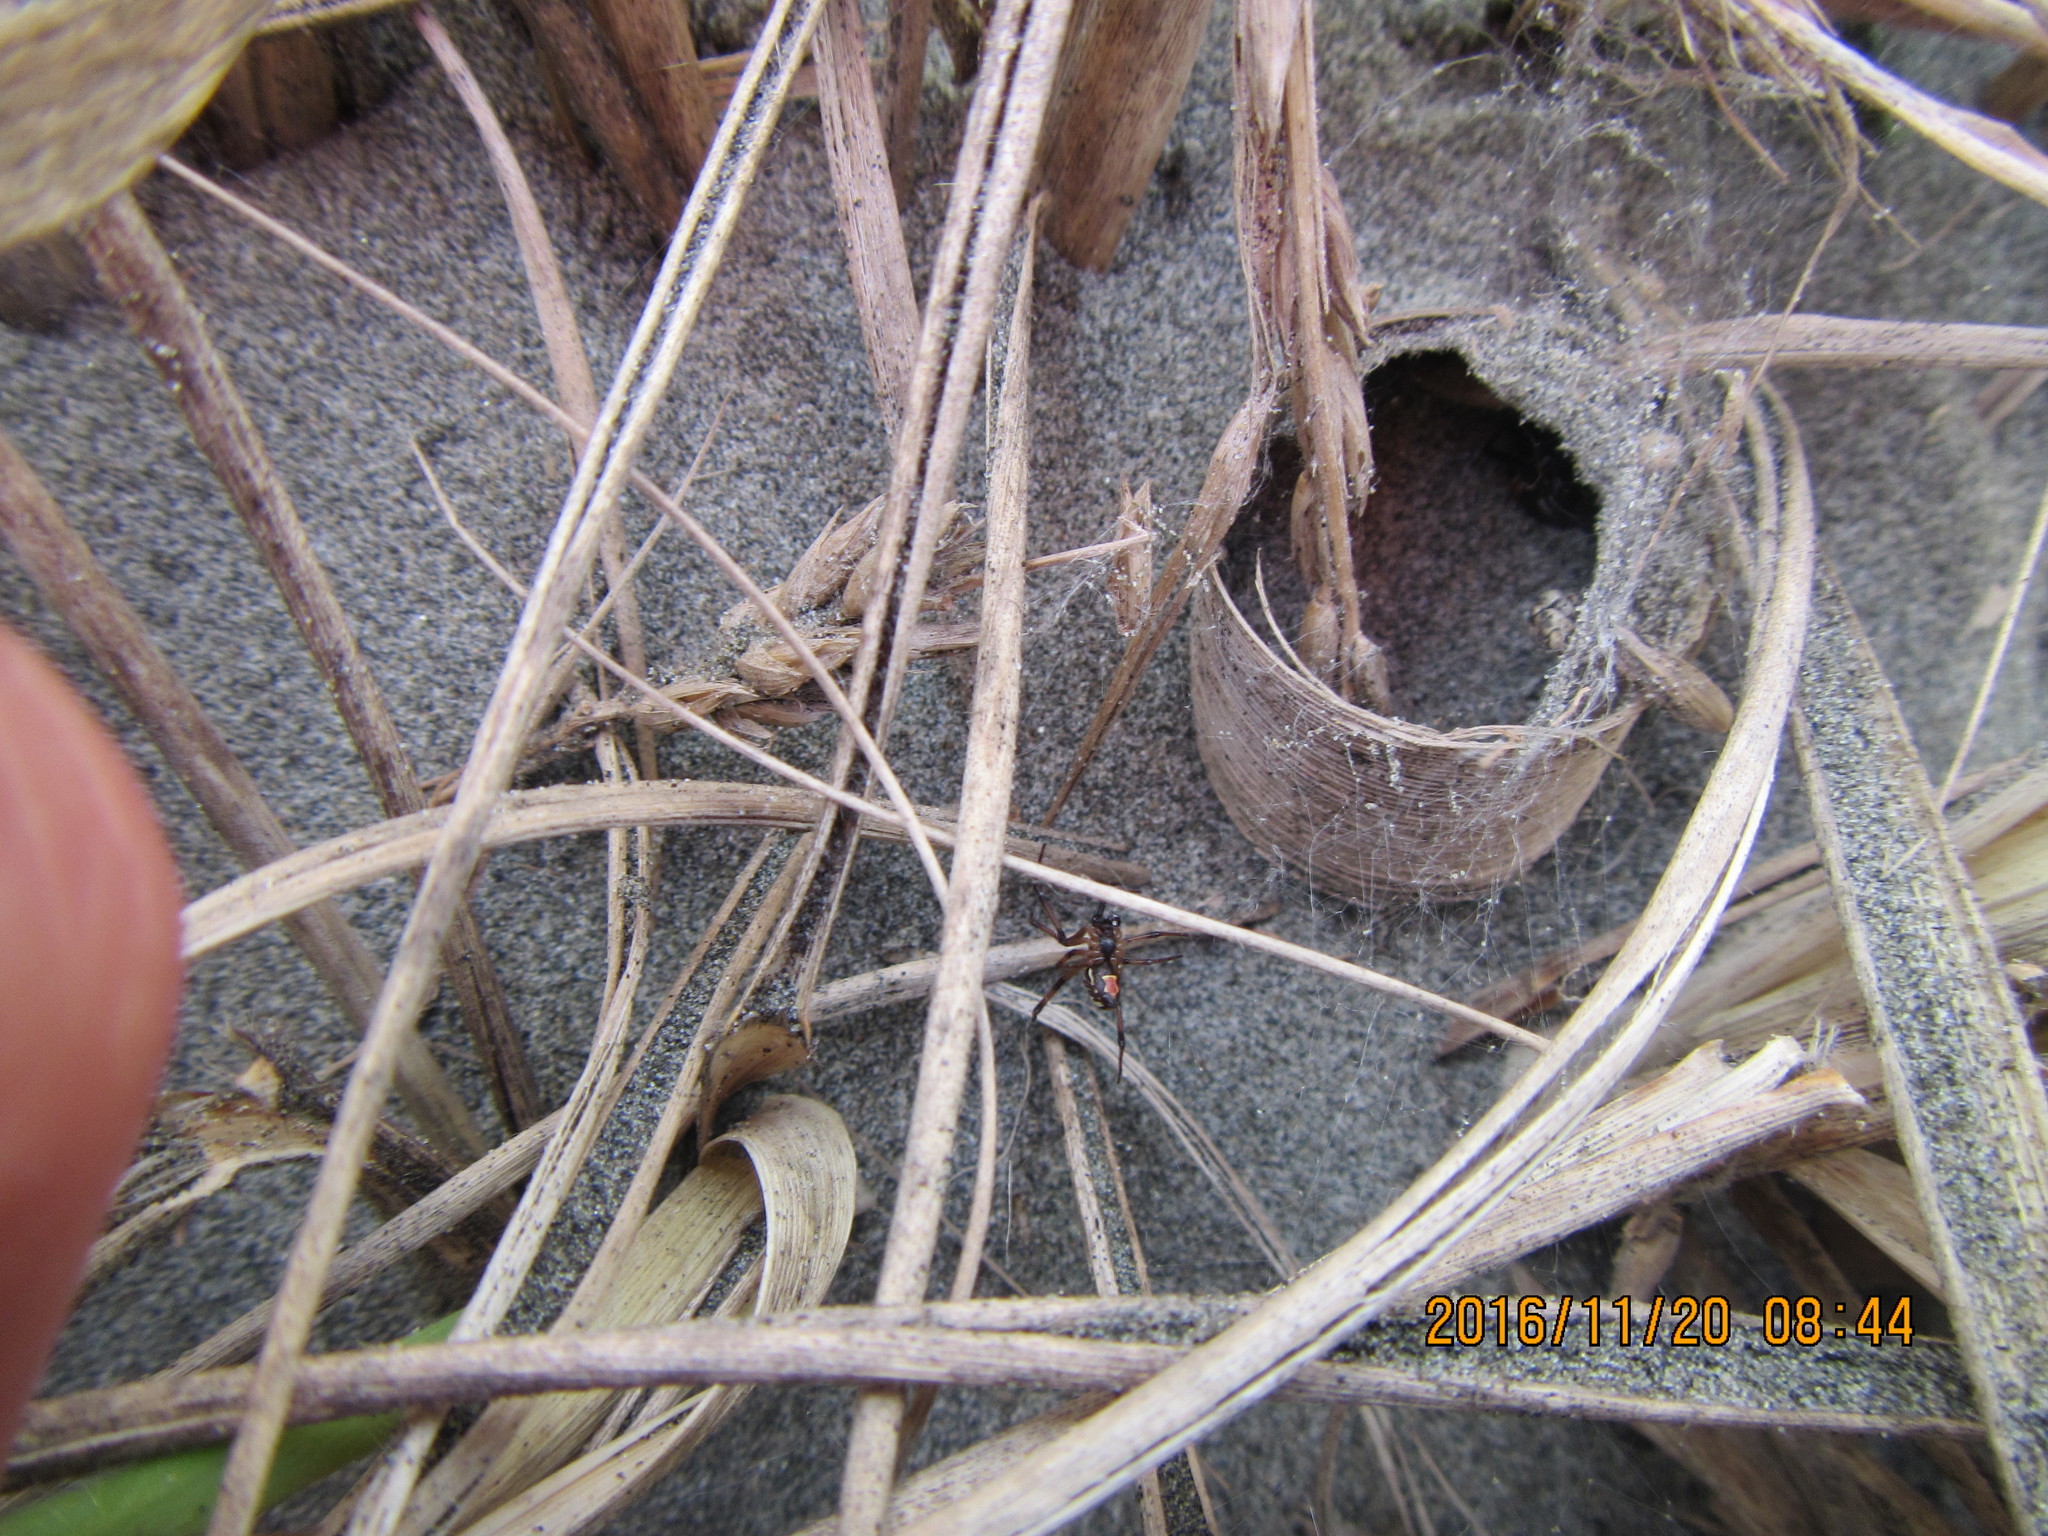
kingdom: Animalia
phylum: Arthropoda
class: Arachnida
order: Araneae
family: Theridiidae
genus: Latrodectus
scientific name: Latrodectus katipo
